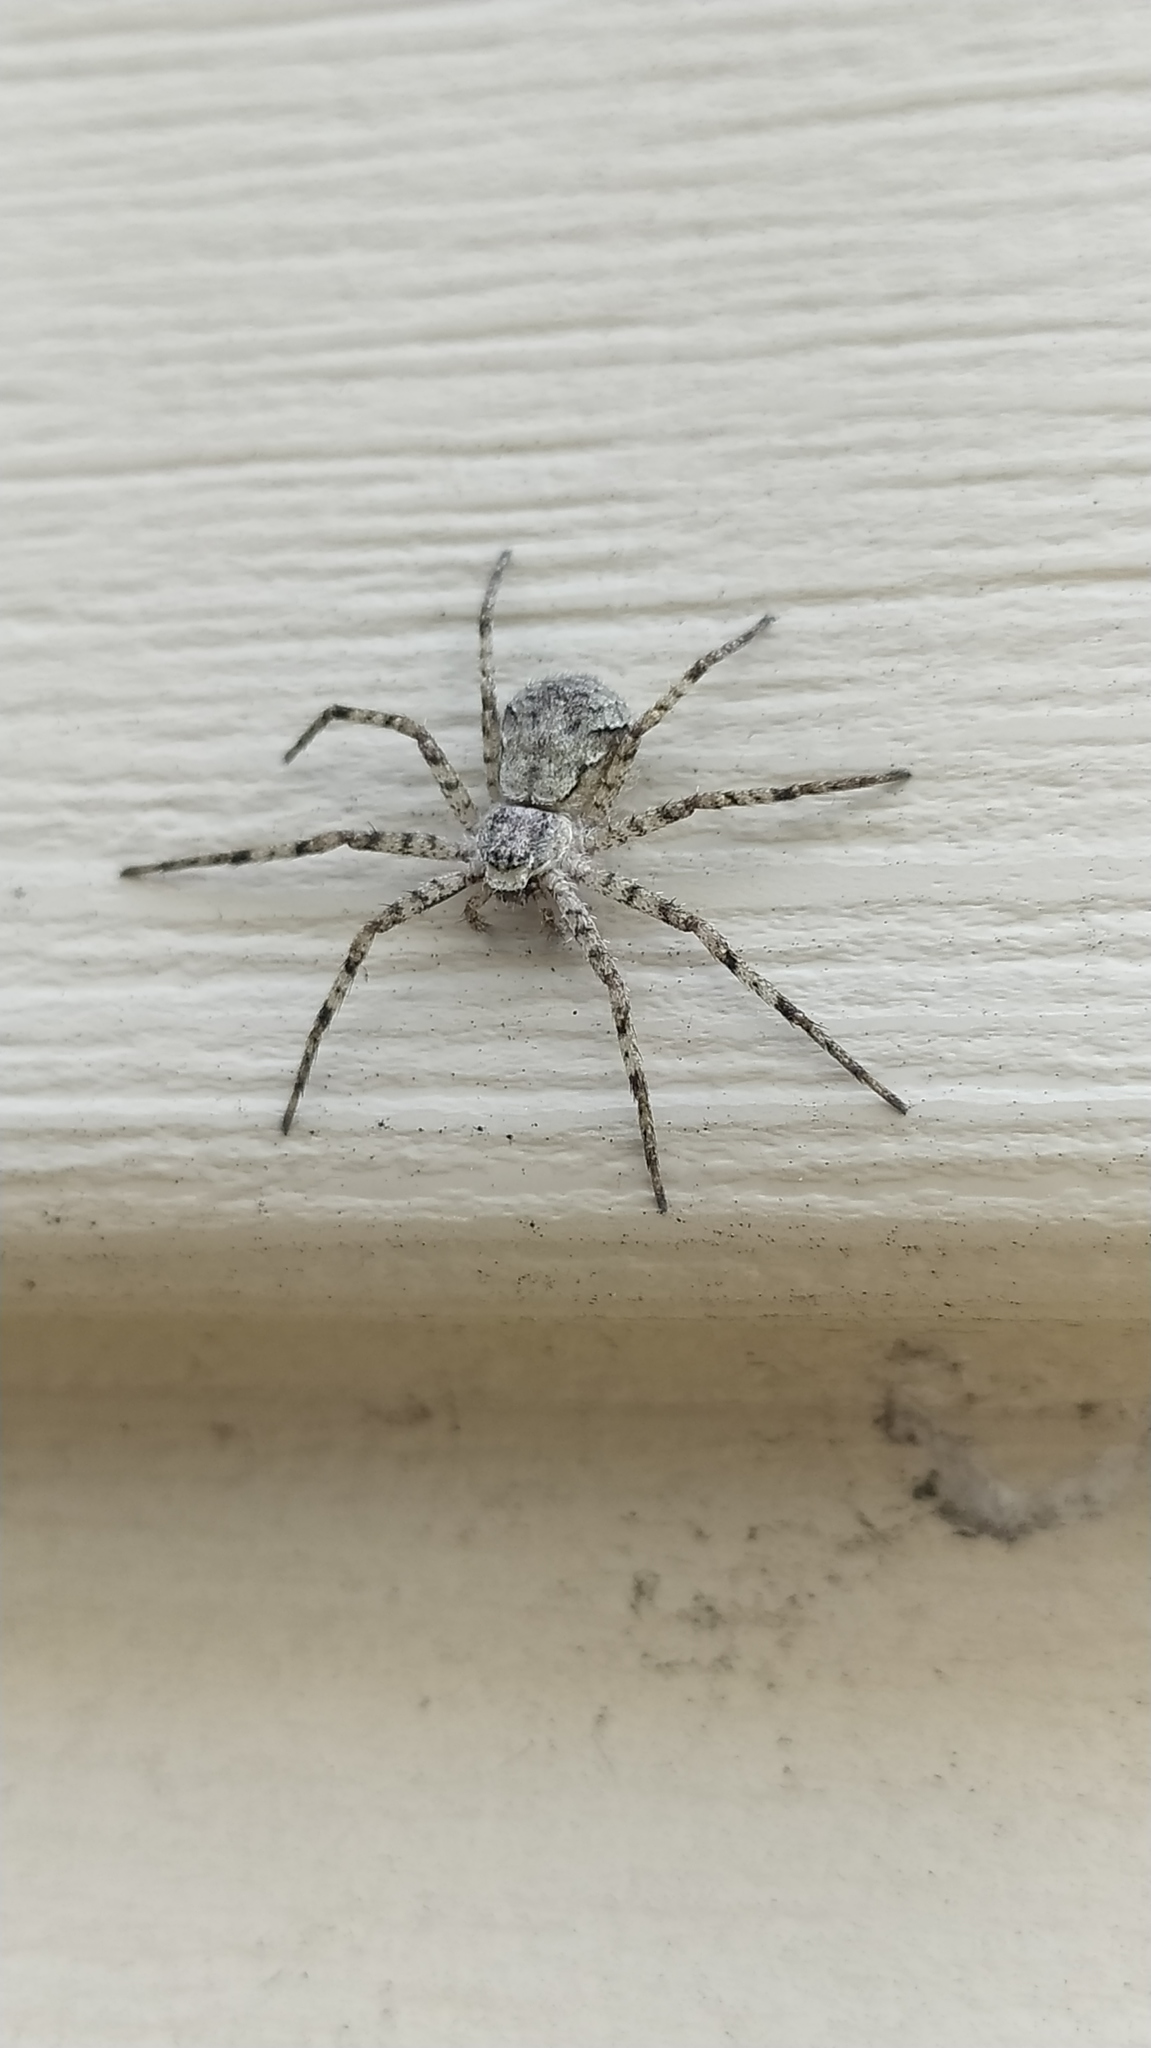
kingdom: Animalia
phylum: Arthropoda
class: Arachnida
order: Araneae
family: Philodromidae
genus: Philodromus
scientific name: Philodromus margaritatus
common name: Lichen running-spider
